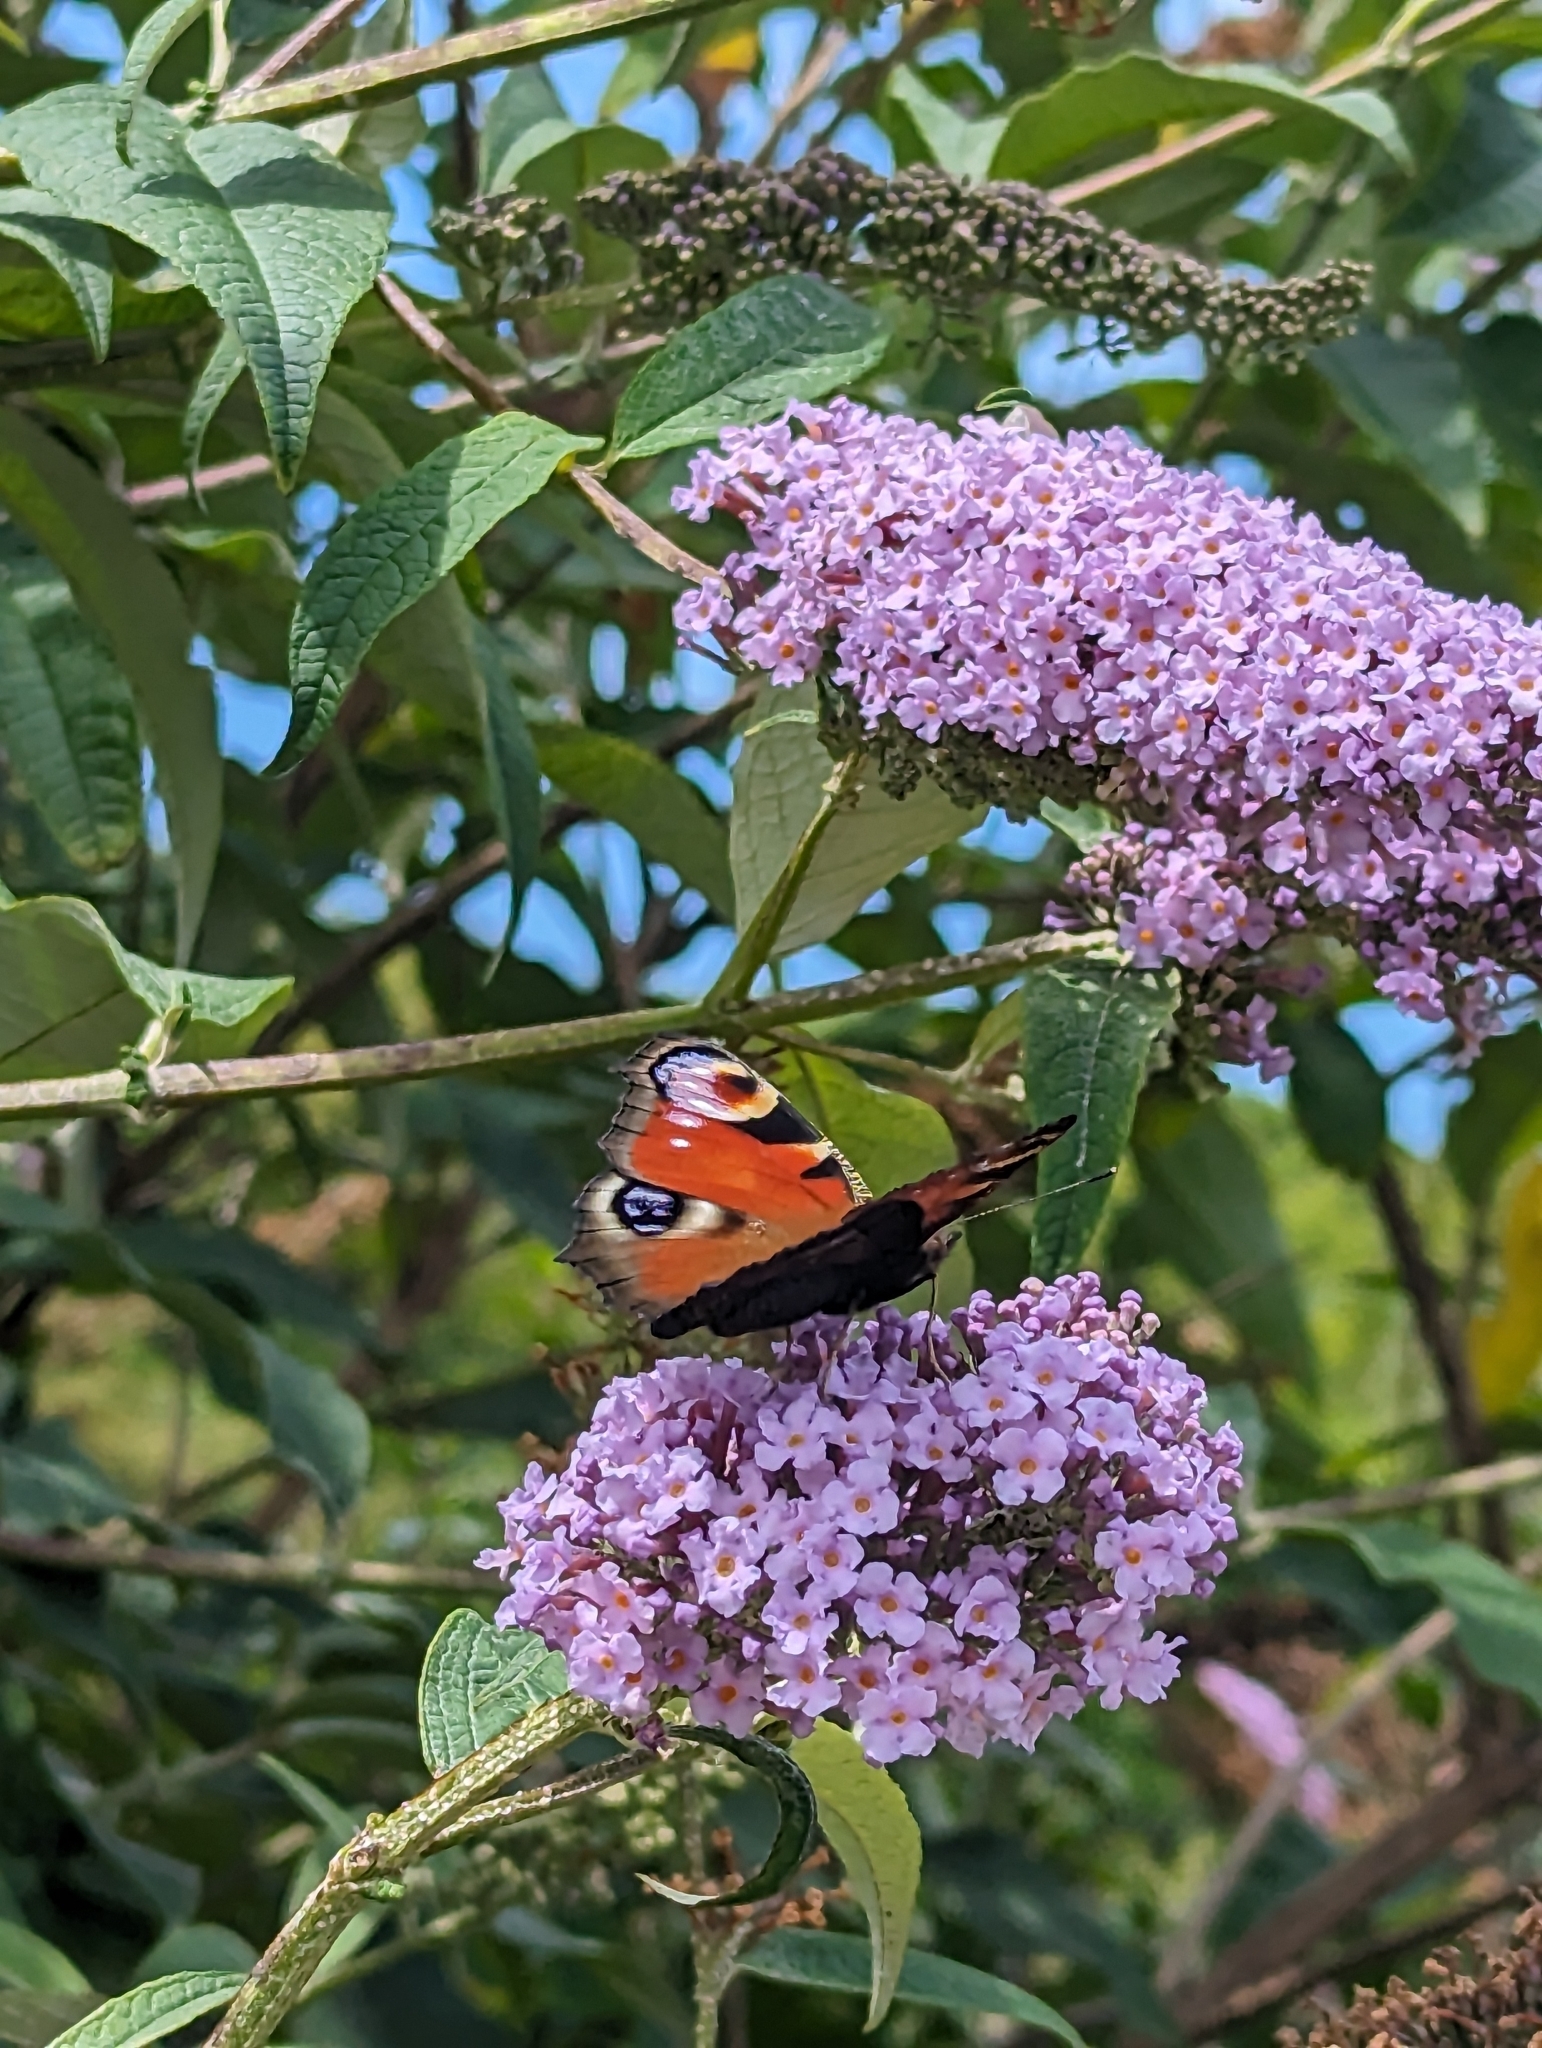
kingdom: Animalia
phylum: Arthropoda
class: Insecta
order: Lepidoptera
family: Nymphalidae
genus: Aglais
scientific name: Aglais io
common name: Peacock
